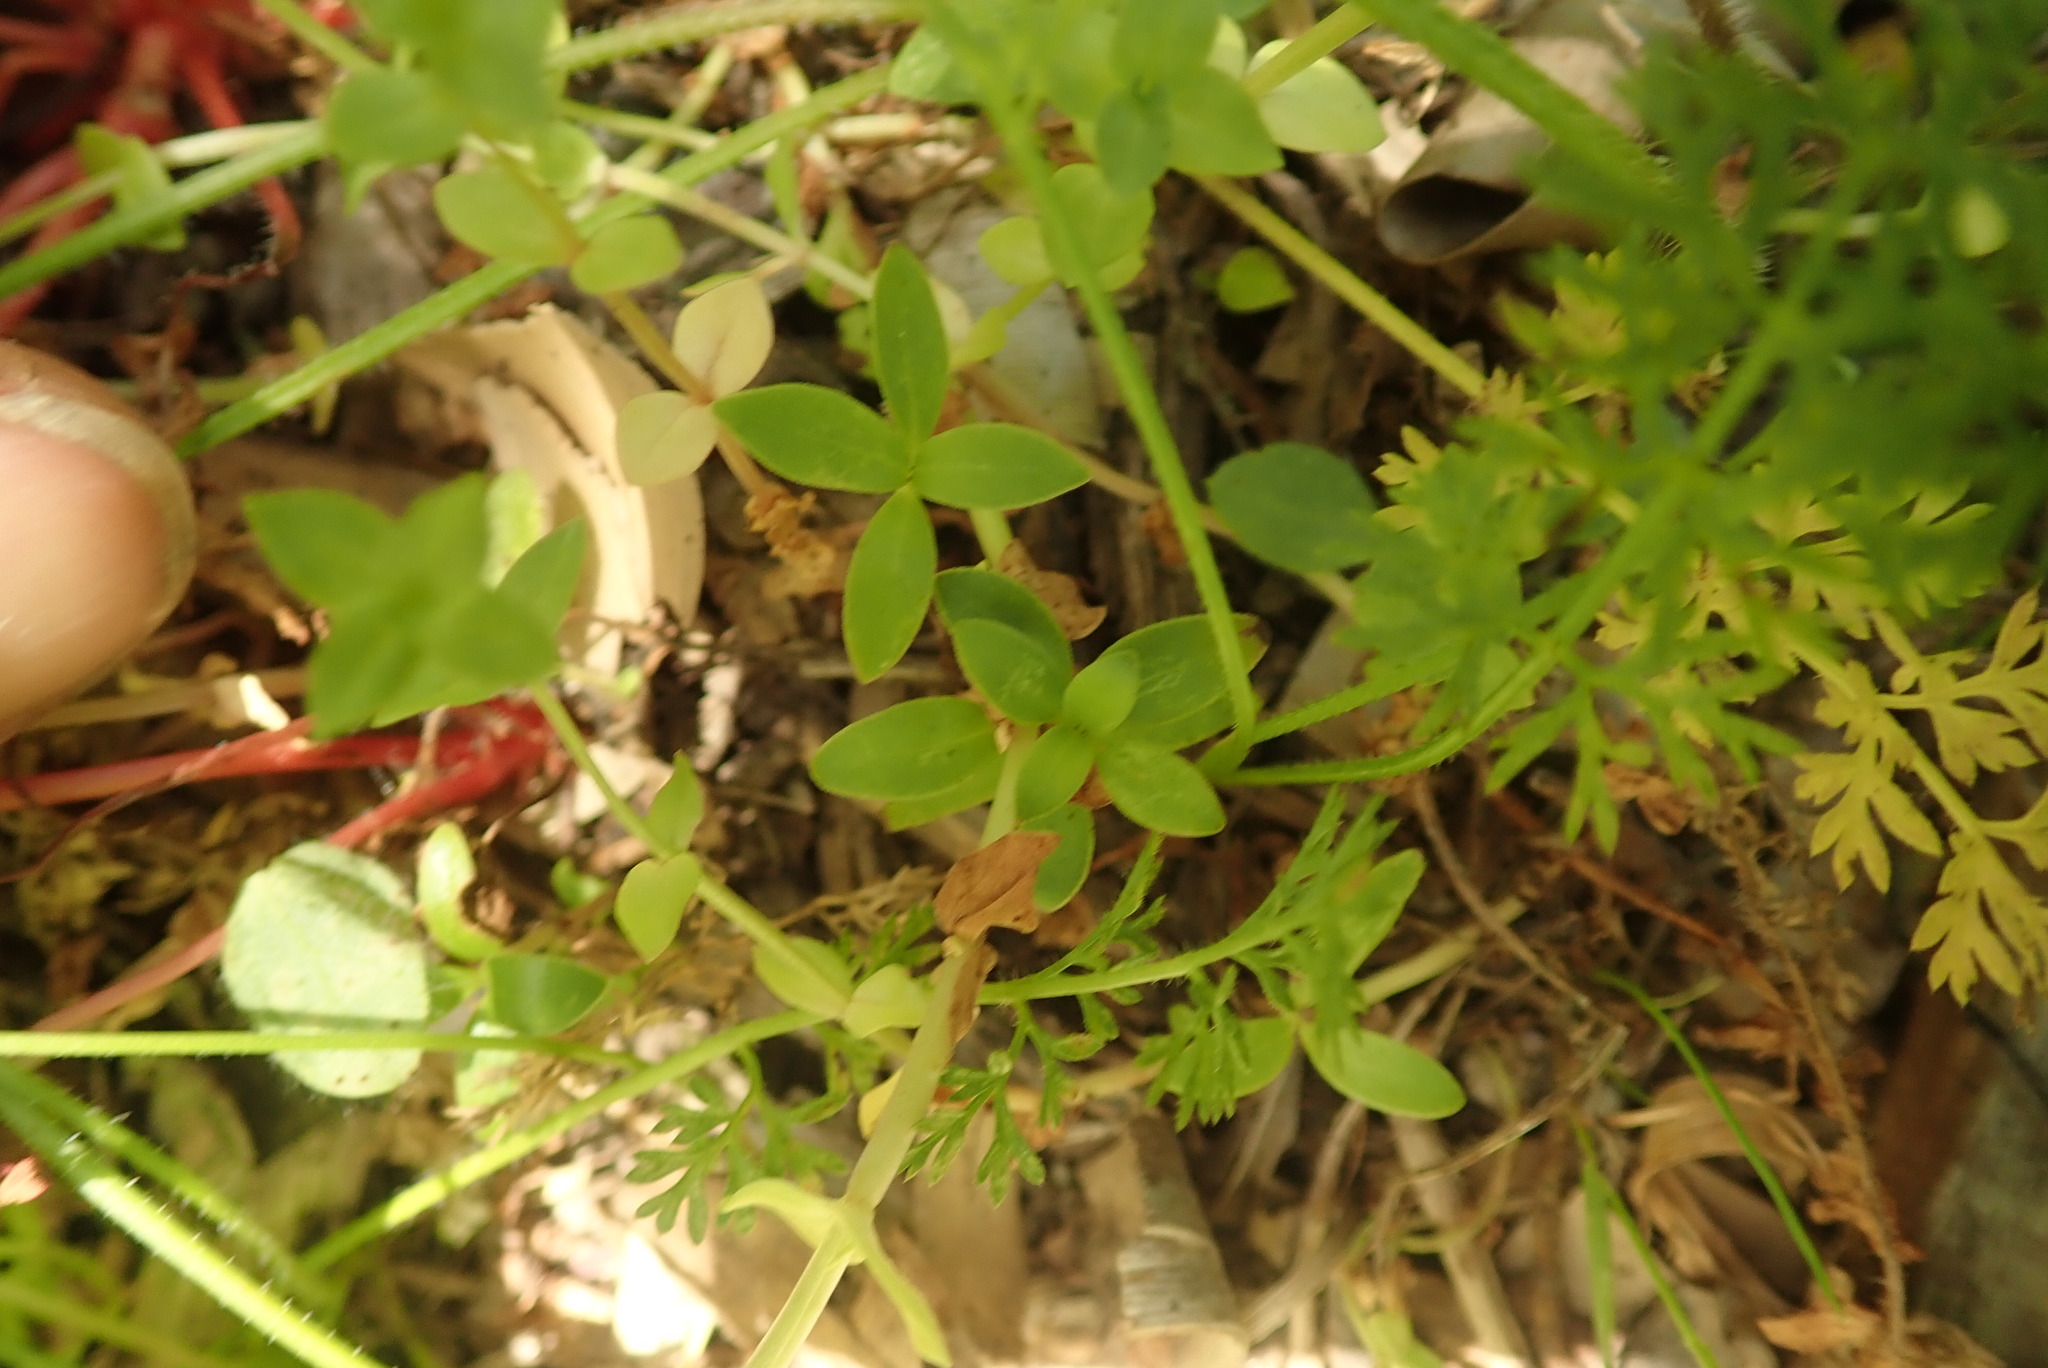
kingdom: Plantae
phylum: Tracheophyta
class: Magnoliopsida
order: Gentianales
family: Rubiaceae
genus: Coprosma
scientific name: Coprosma robusta
